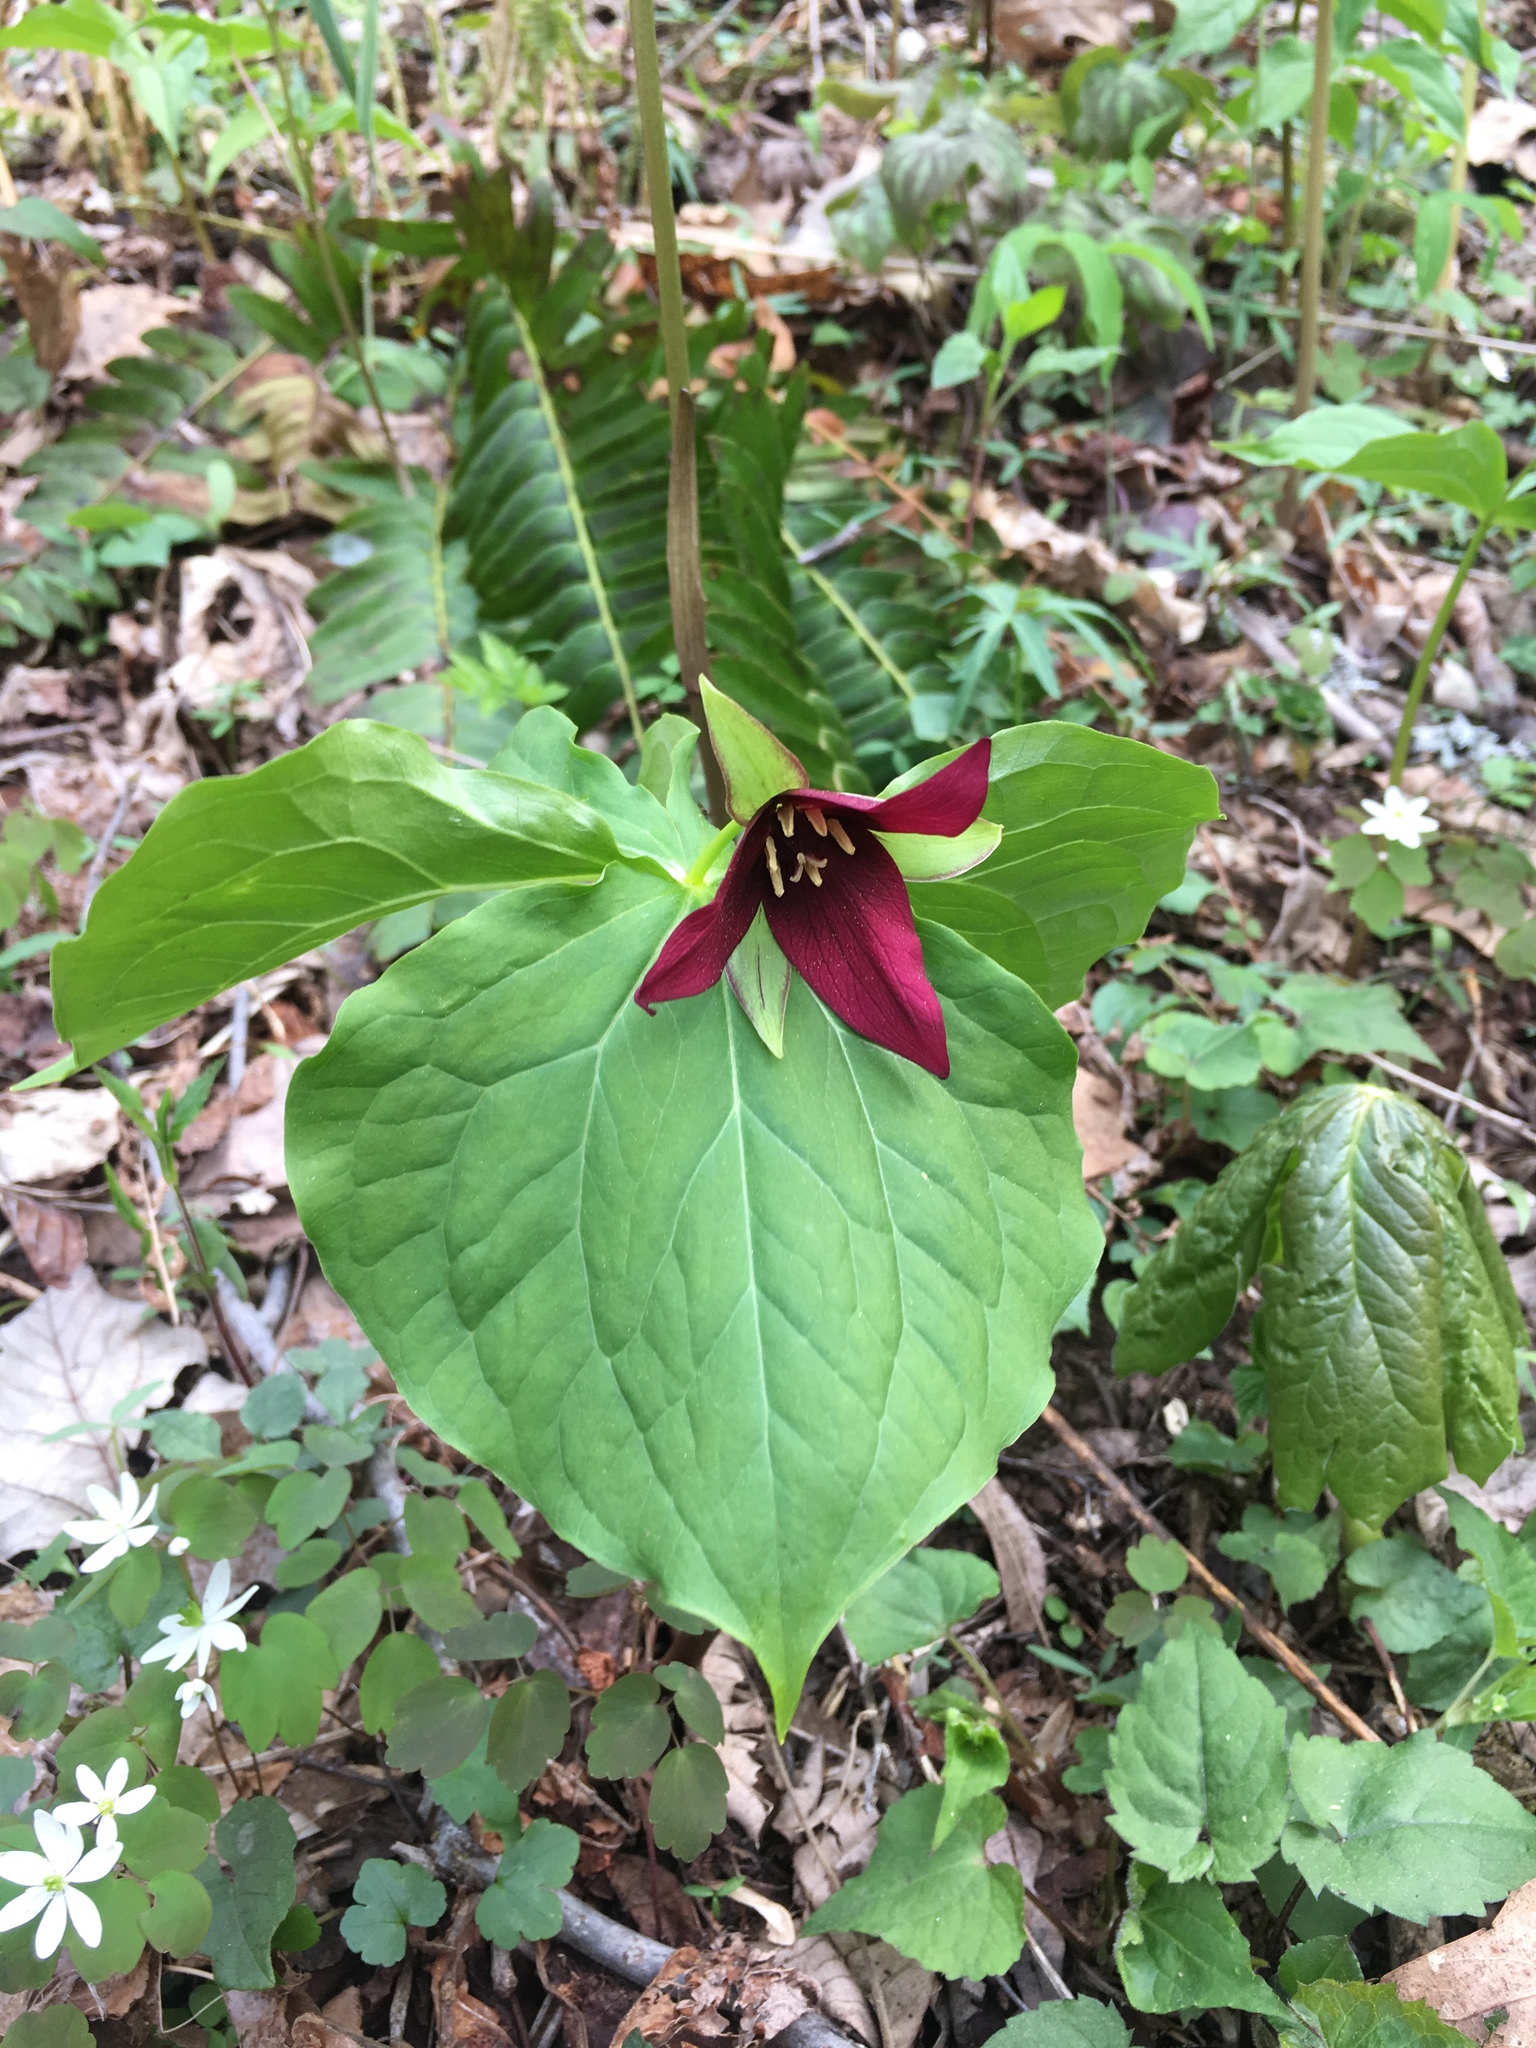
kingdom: Plantae
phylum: Tracheophyta
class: Liliopsida
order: Liliales
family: Melanthiaceae
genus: Trillium
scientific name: Trillium erectum
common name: Purple trillium
